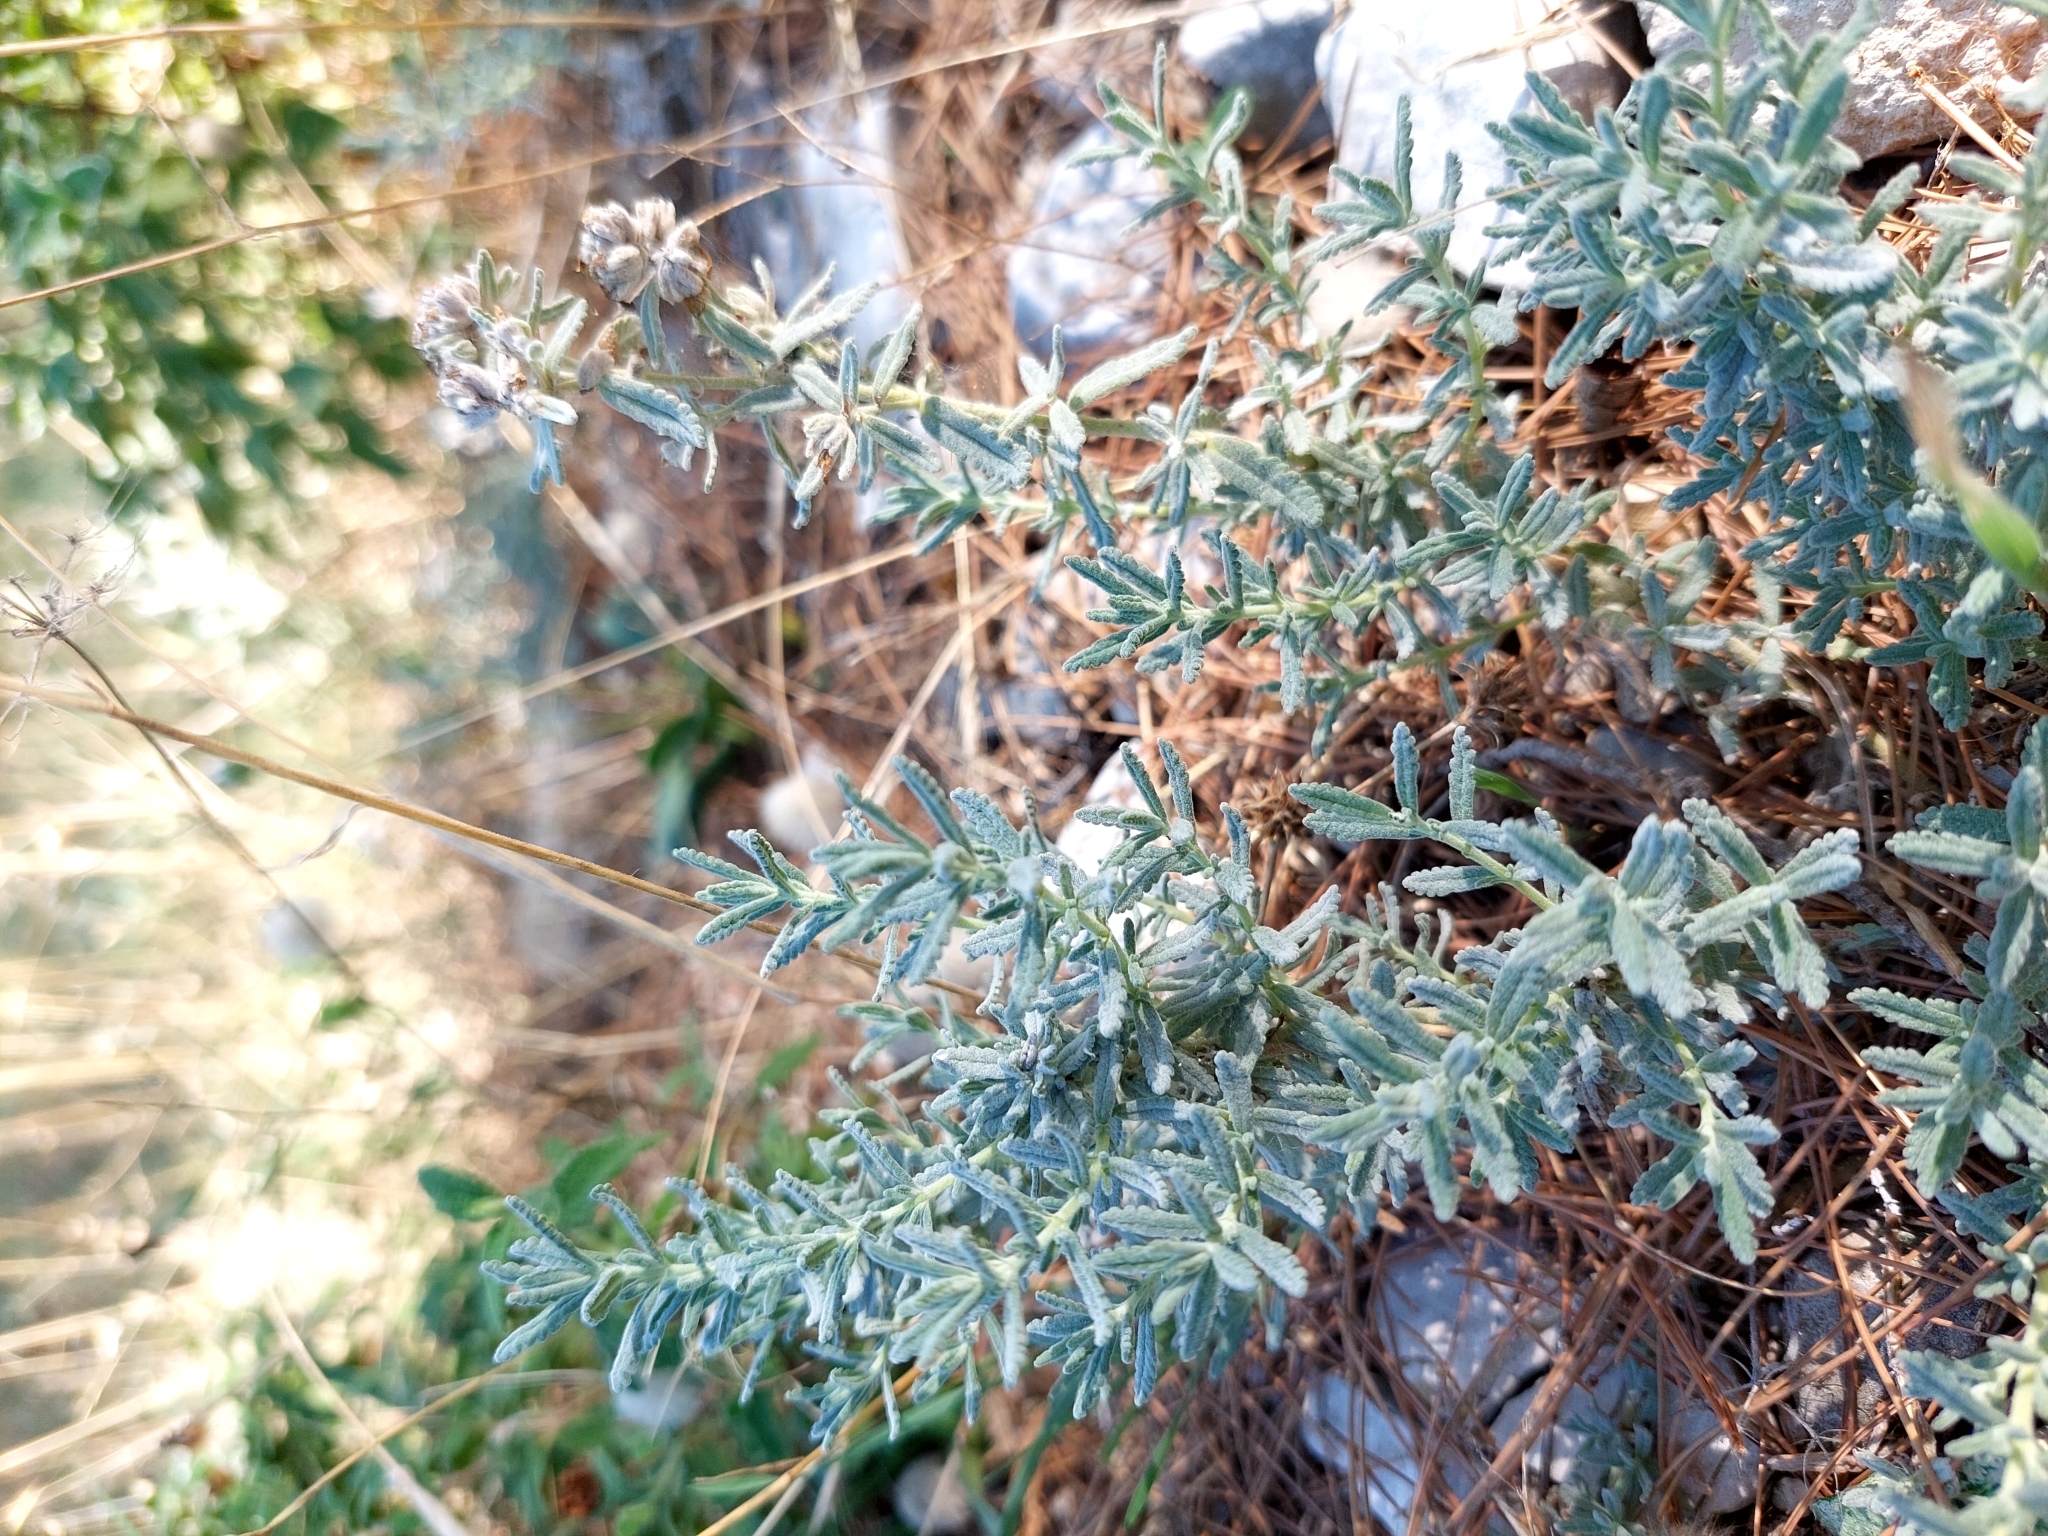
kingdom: Plantae
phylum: Tracheophyta
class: Magnoliopsida
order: Lamiales
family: Lamiaceae
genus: Teucrium
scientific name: Teucrium capitatum
